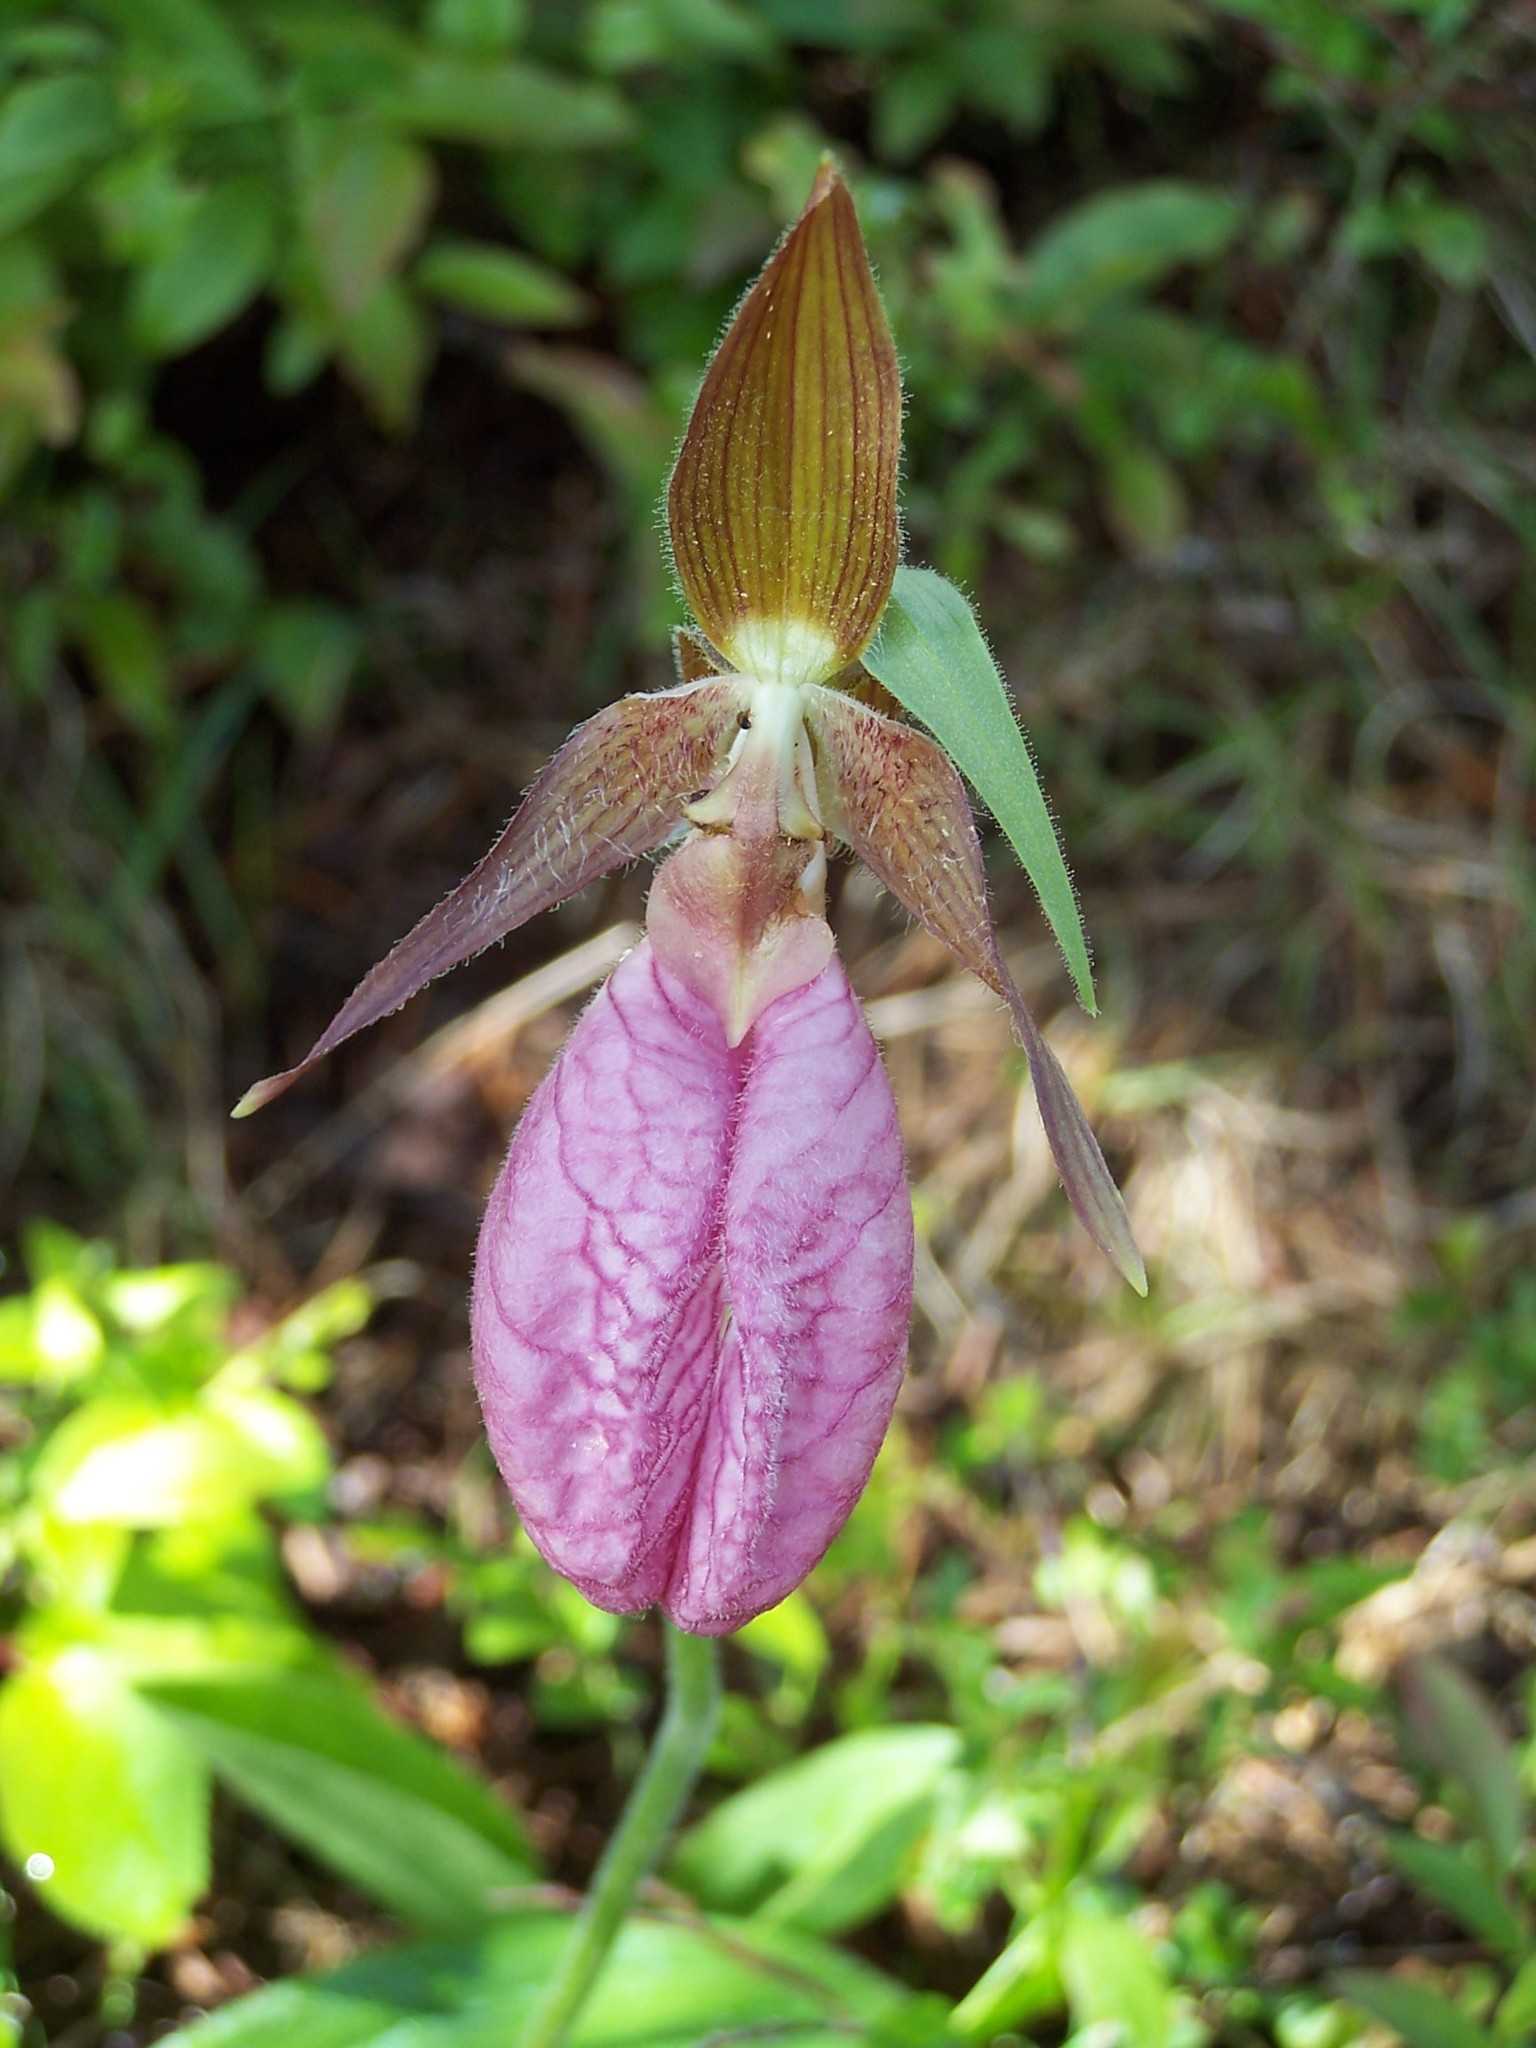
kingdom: Plantae
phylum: Tracheophyta
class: Liliopsida
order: Asparagales
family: Orchidaceae
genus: Cypripedium
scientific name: Cypripedium acaule
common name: Pink lady's-slipper
